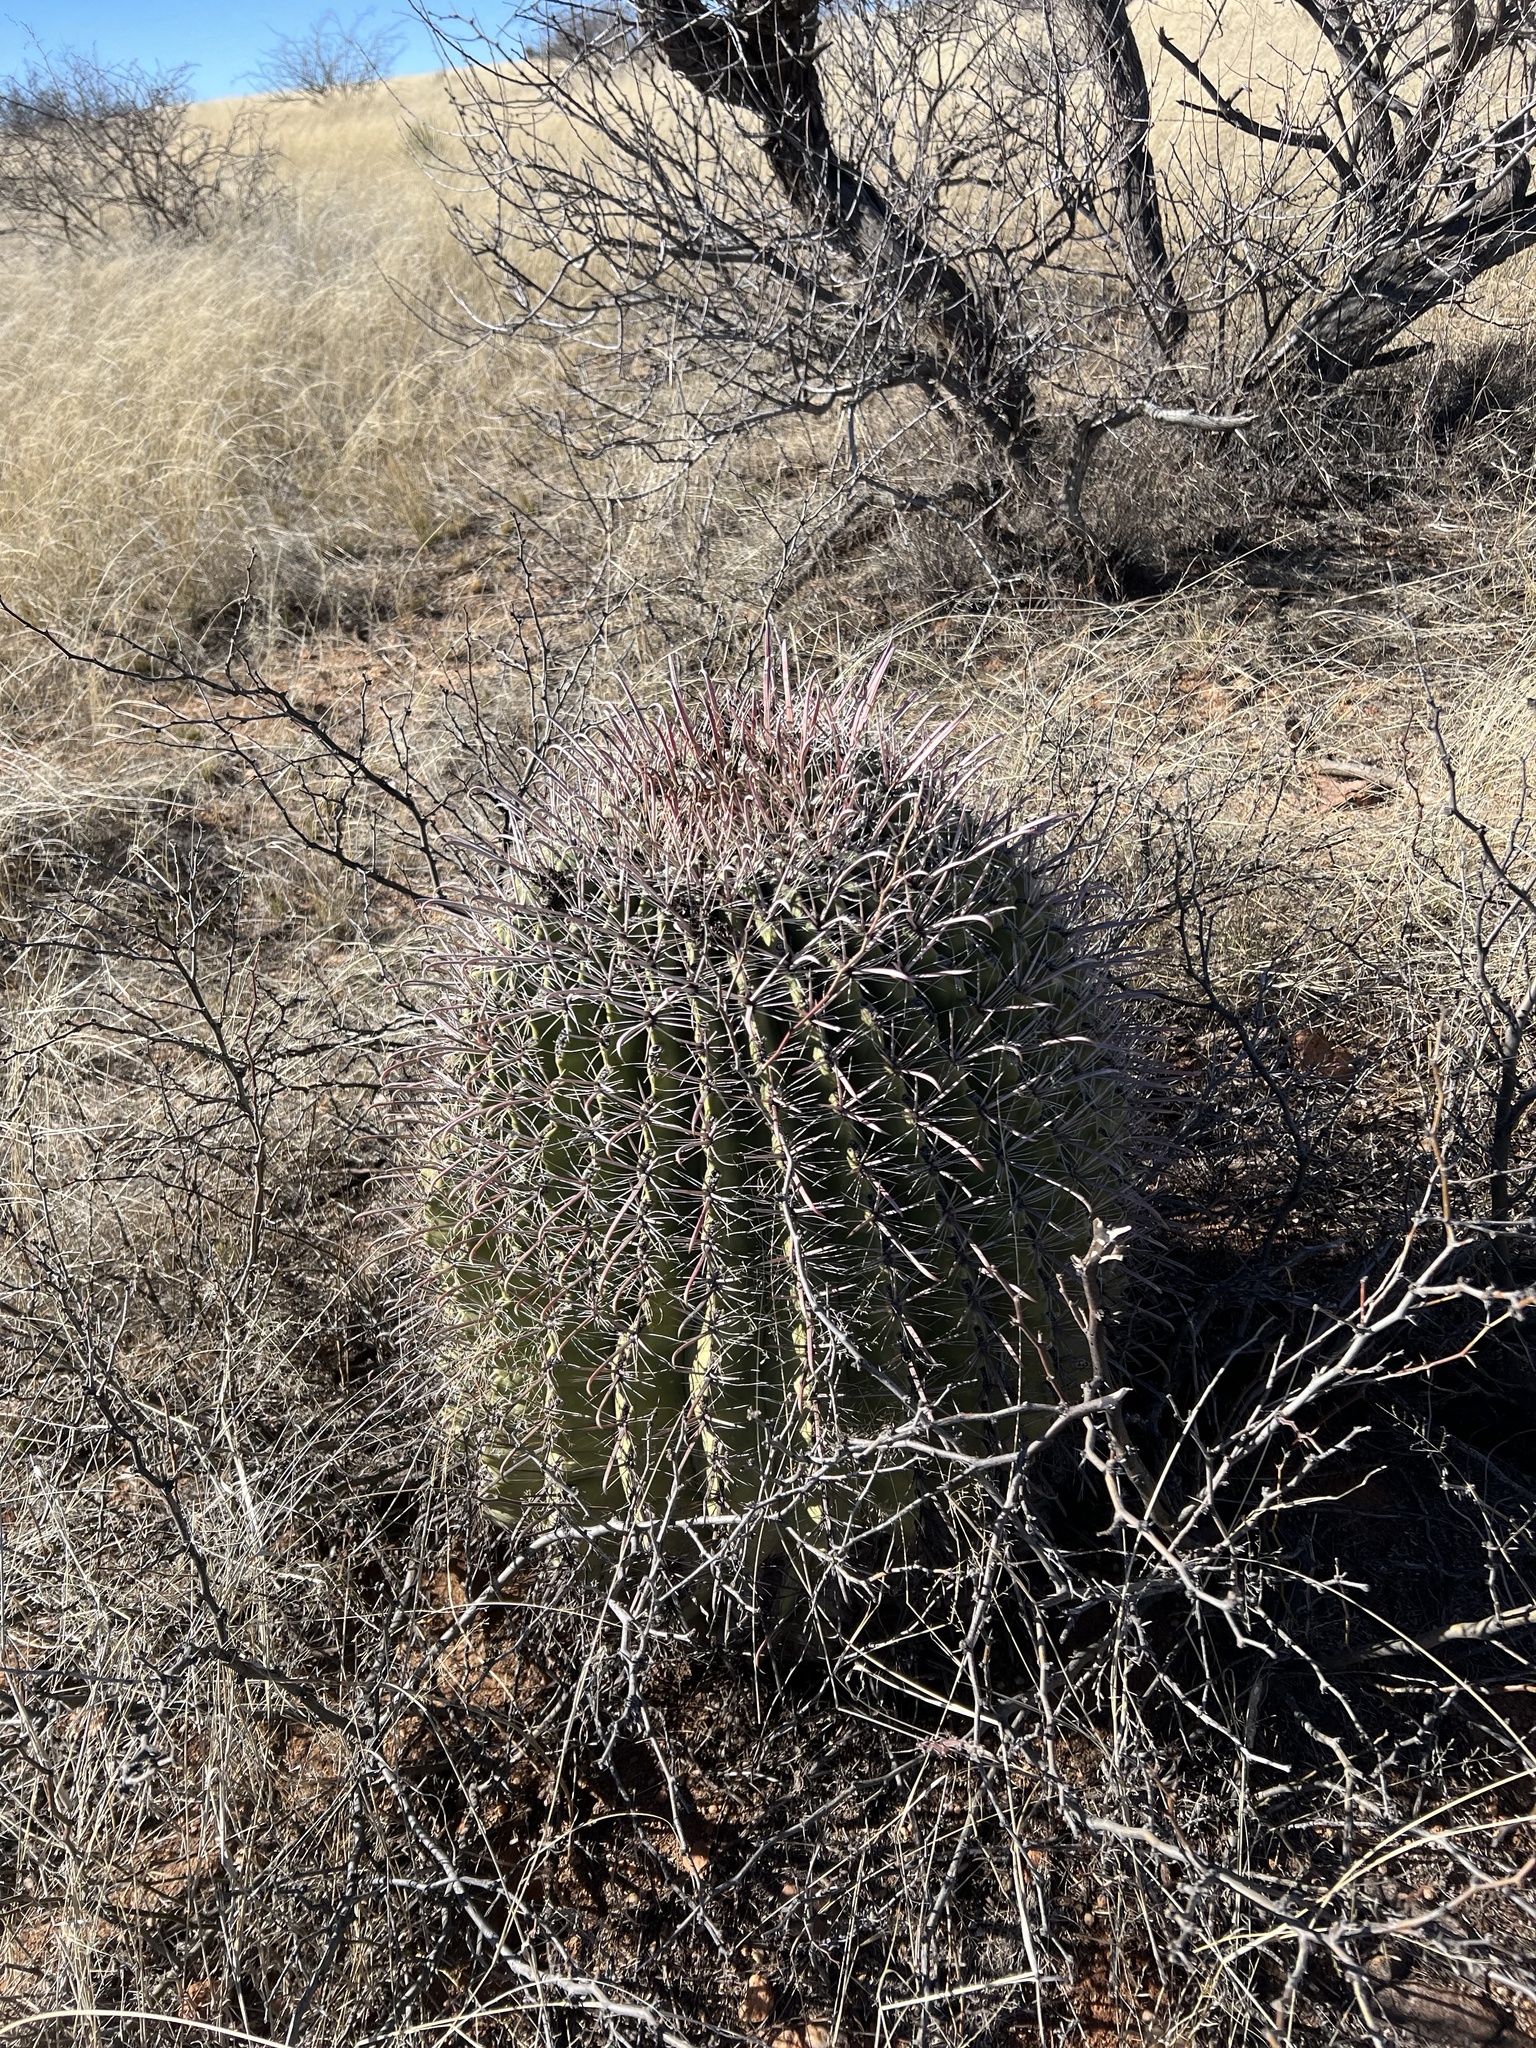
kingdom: Plantae
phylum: Tracheophyta
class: Magnoliopsida
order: Caryophyllales
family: Cactaceae
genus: Ferocactus
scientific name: Ferocactus wislizeni
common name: Candy barrel cactus
